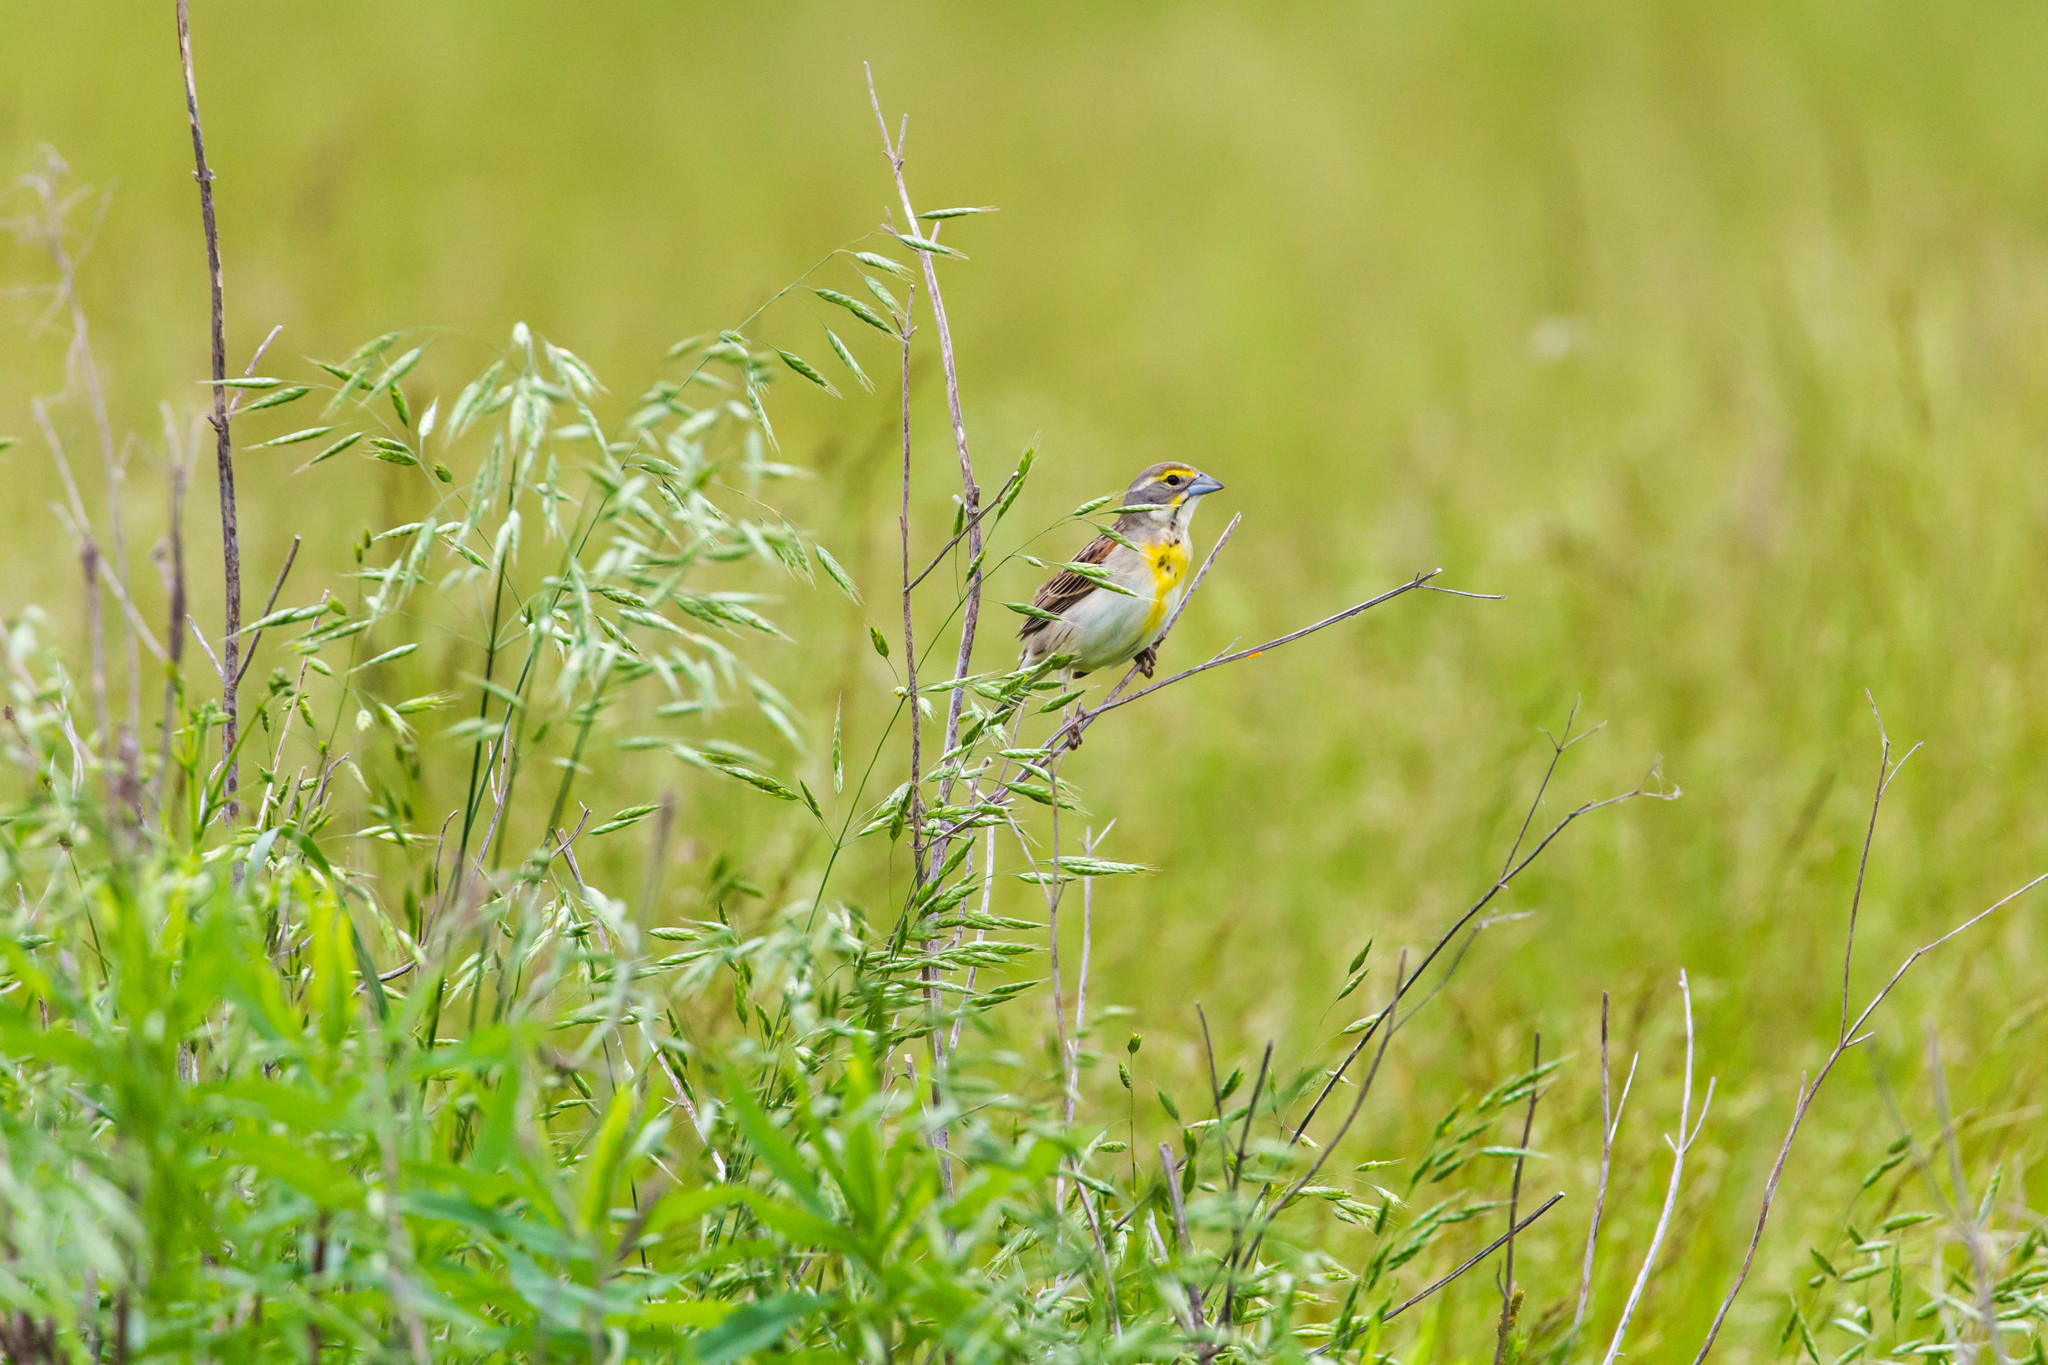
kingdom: Animalia
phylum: Chordata
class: Aves
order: Passeriformes
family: Cardinalidae
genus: Spiza
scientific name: Spiza americana
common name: Dickcissel
